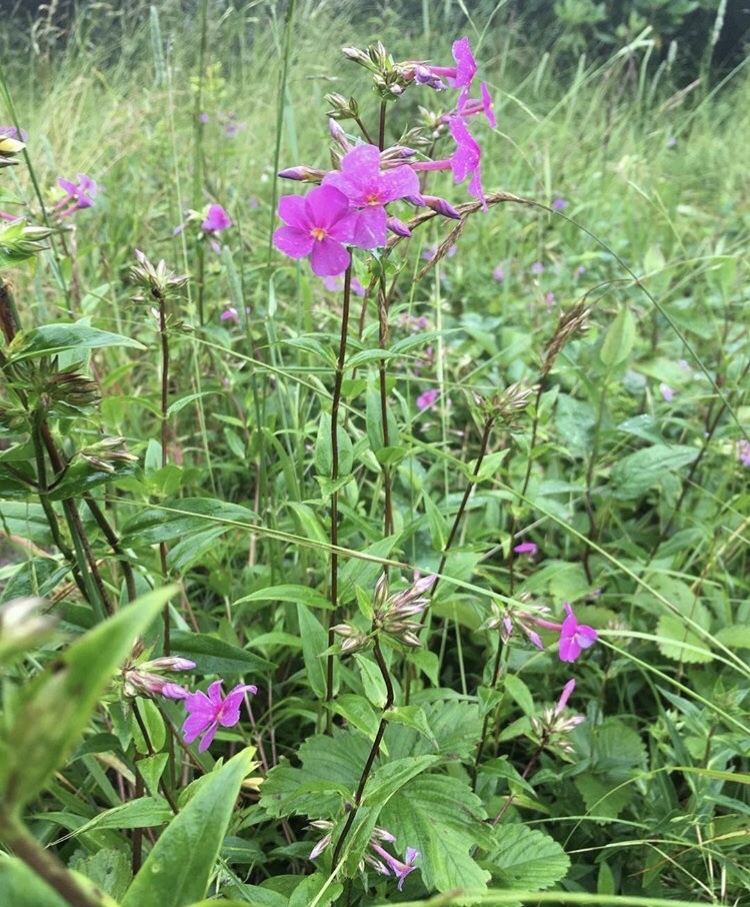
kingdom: Plantae
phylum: Tracheophyta
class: Magnoliopsida
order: Ericales
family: Polemoniaceae
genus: Phlox
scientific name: Phlox ovata
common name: Mountain phlox
